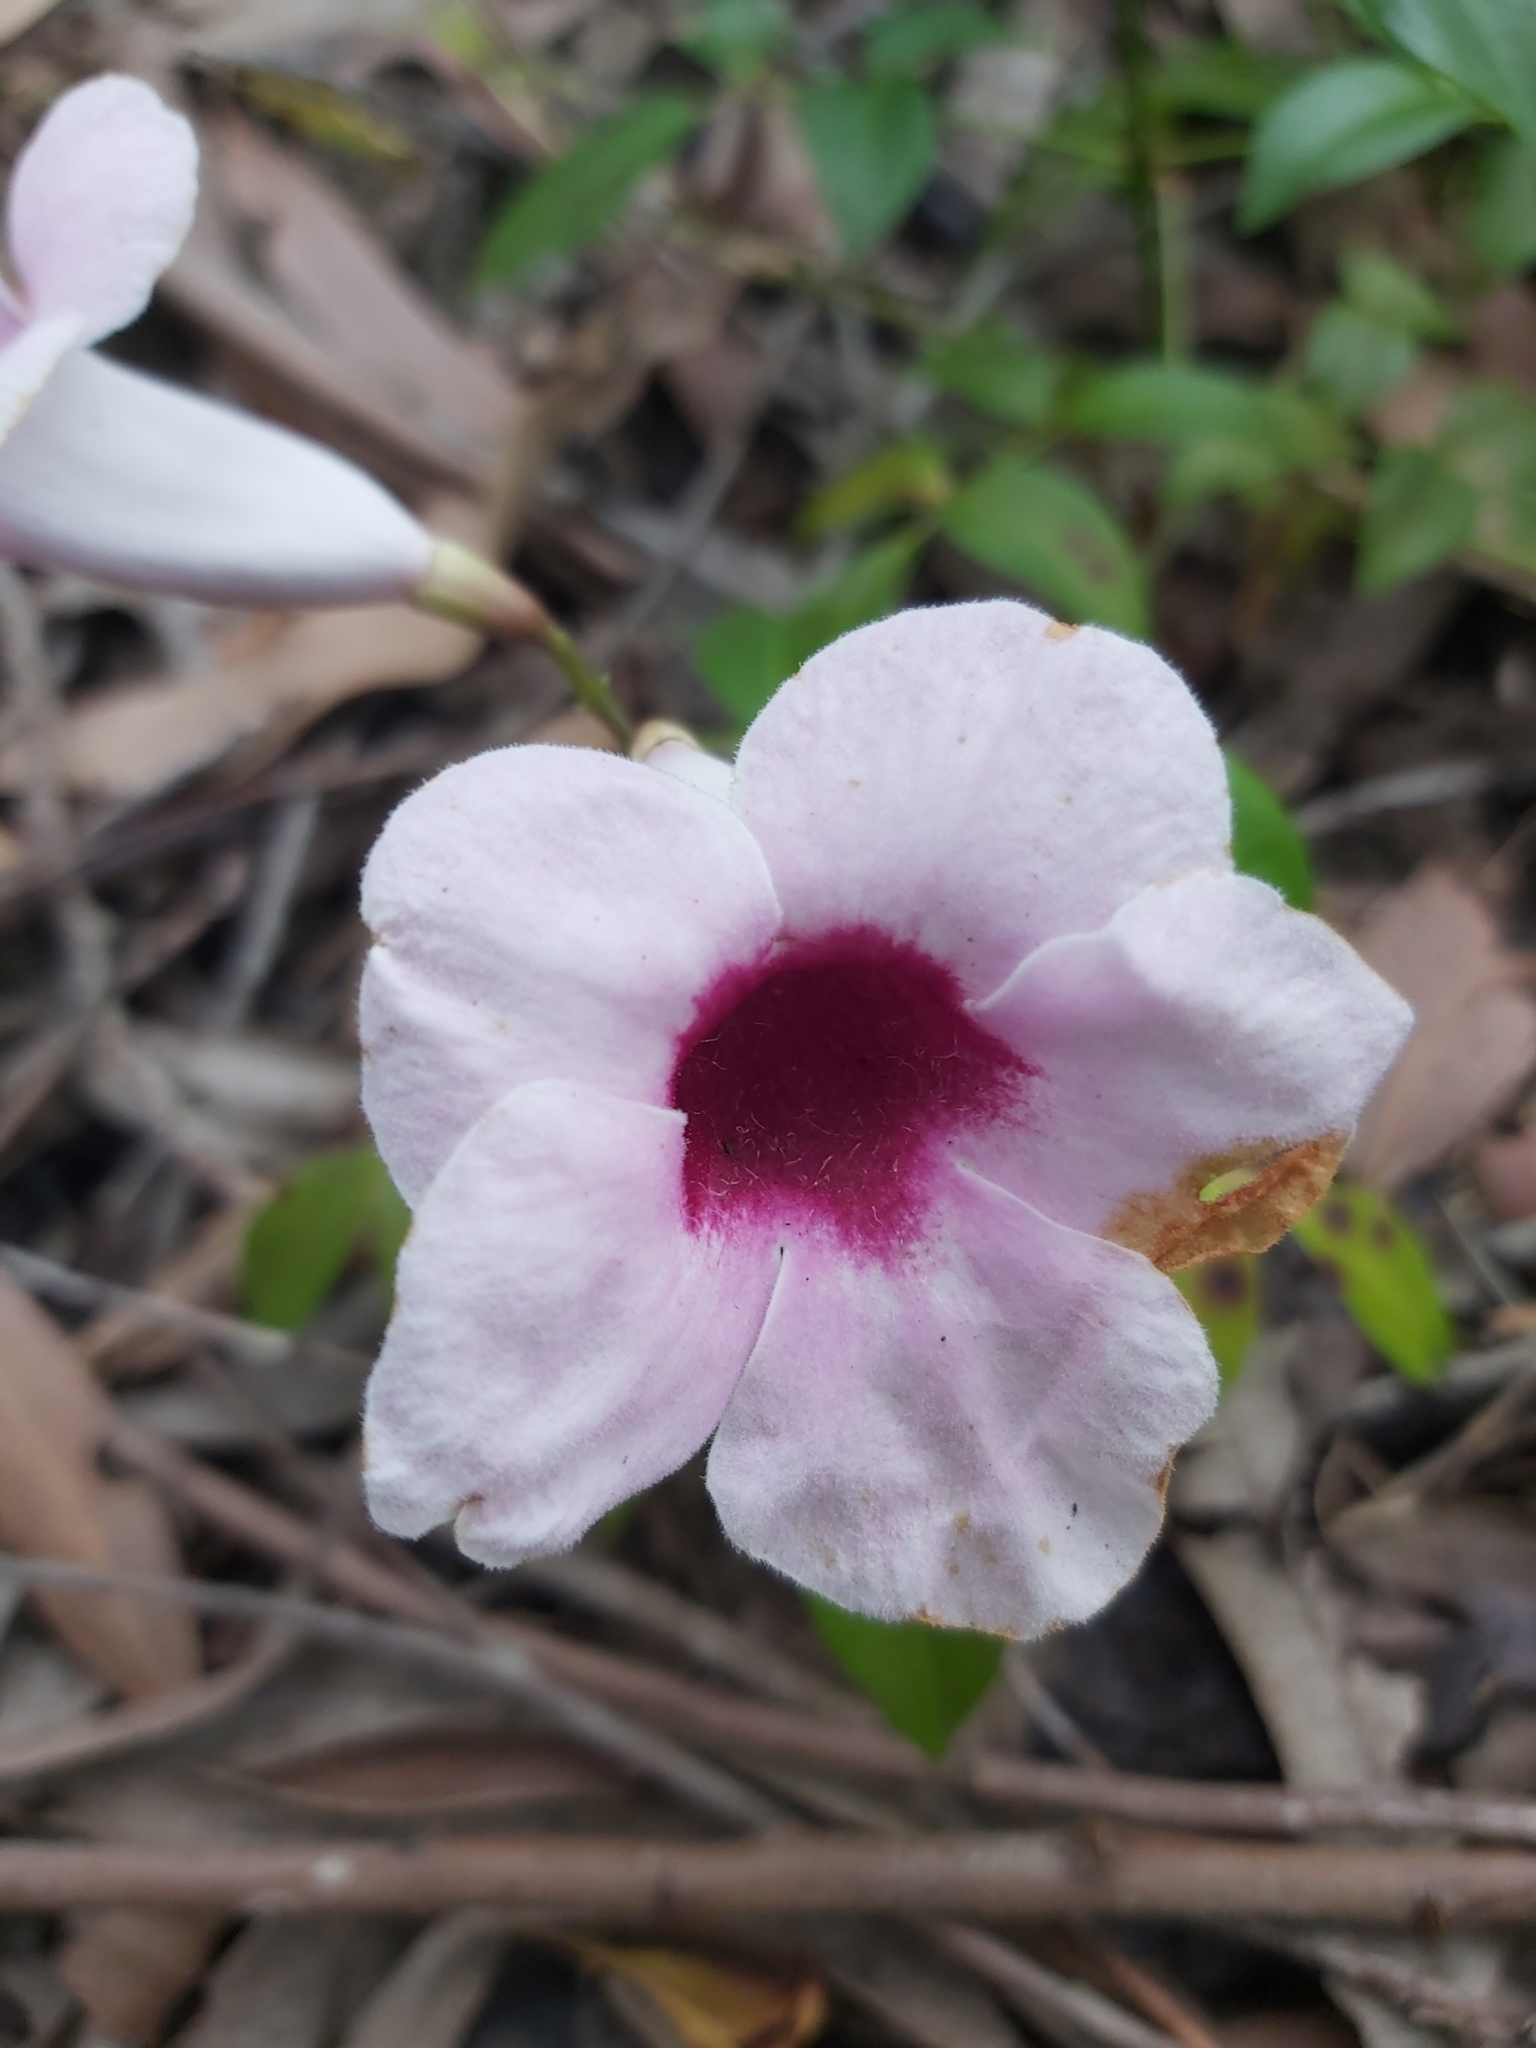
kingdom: Plantae
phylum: Tracheophyta
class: Magnoliopsida
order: Lamiales
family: Bignoniaceae
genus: Pandorea
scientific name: Pandorea jasminoides
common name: Bowerplant
